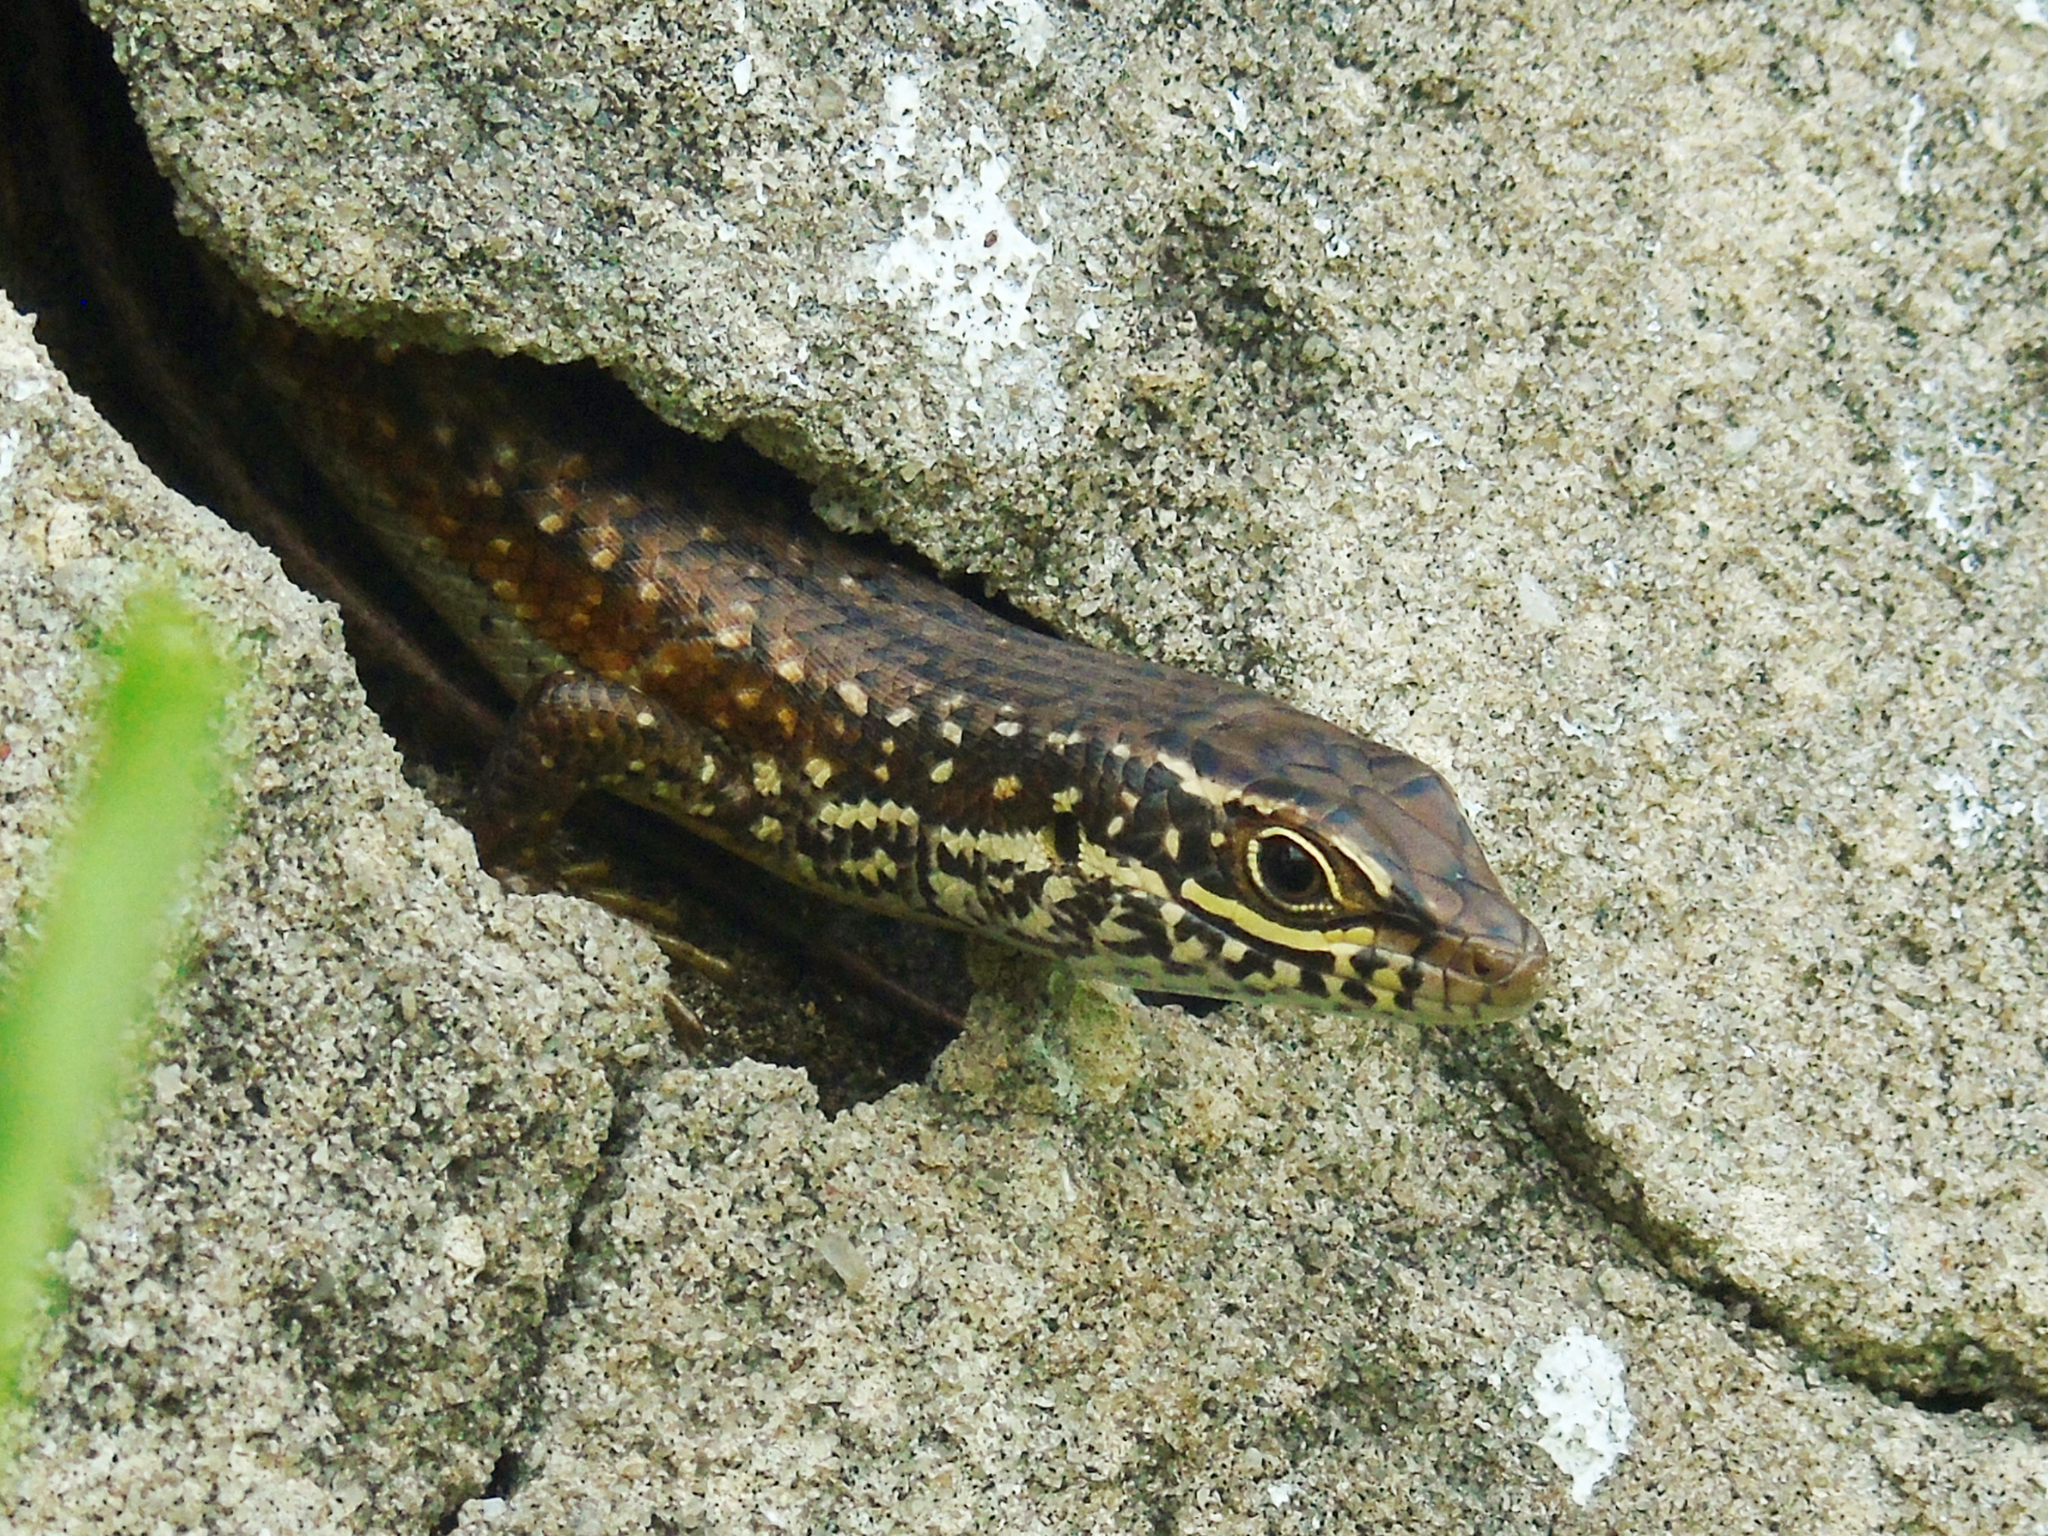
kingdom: Animalia
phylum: Chordata
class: Squamata
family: Scincidae
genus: Trachylepis
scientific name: Trachylepis maculilabris
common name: Speckle-lipped mabuya
